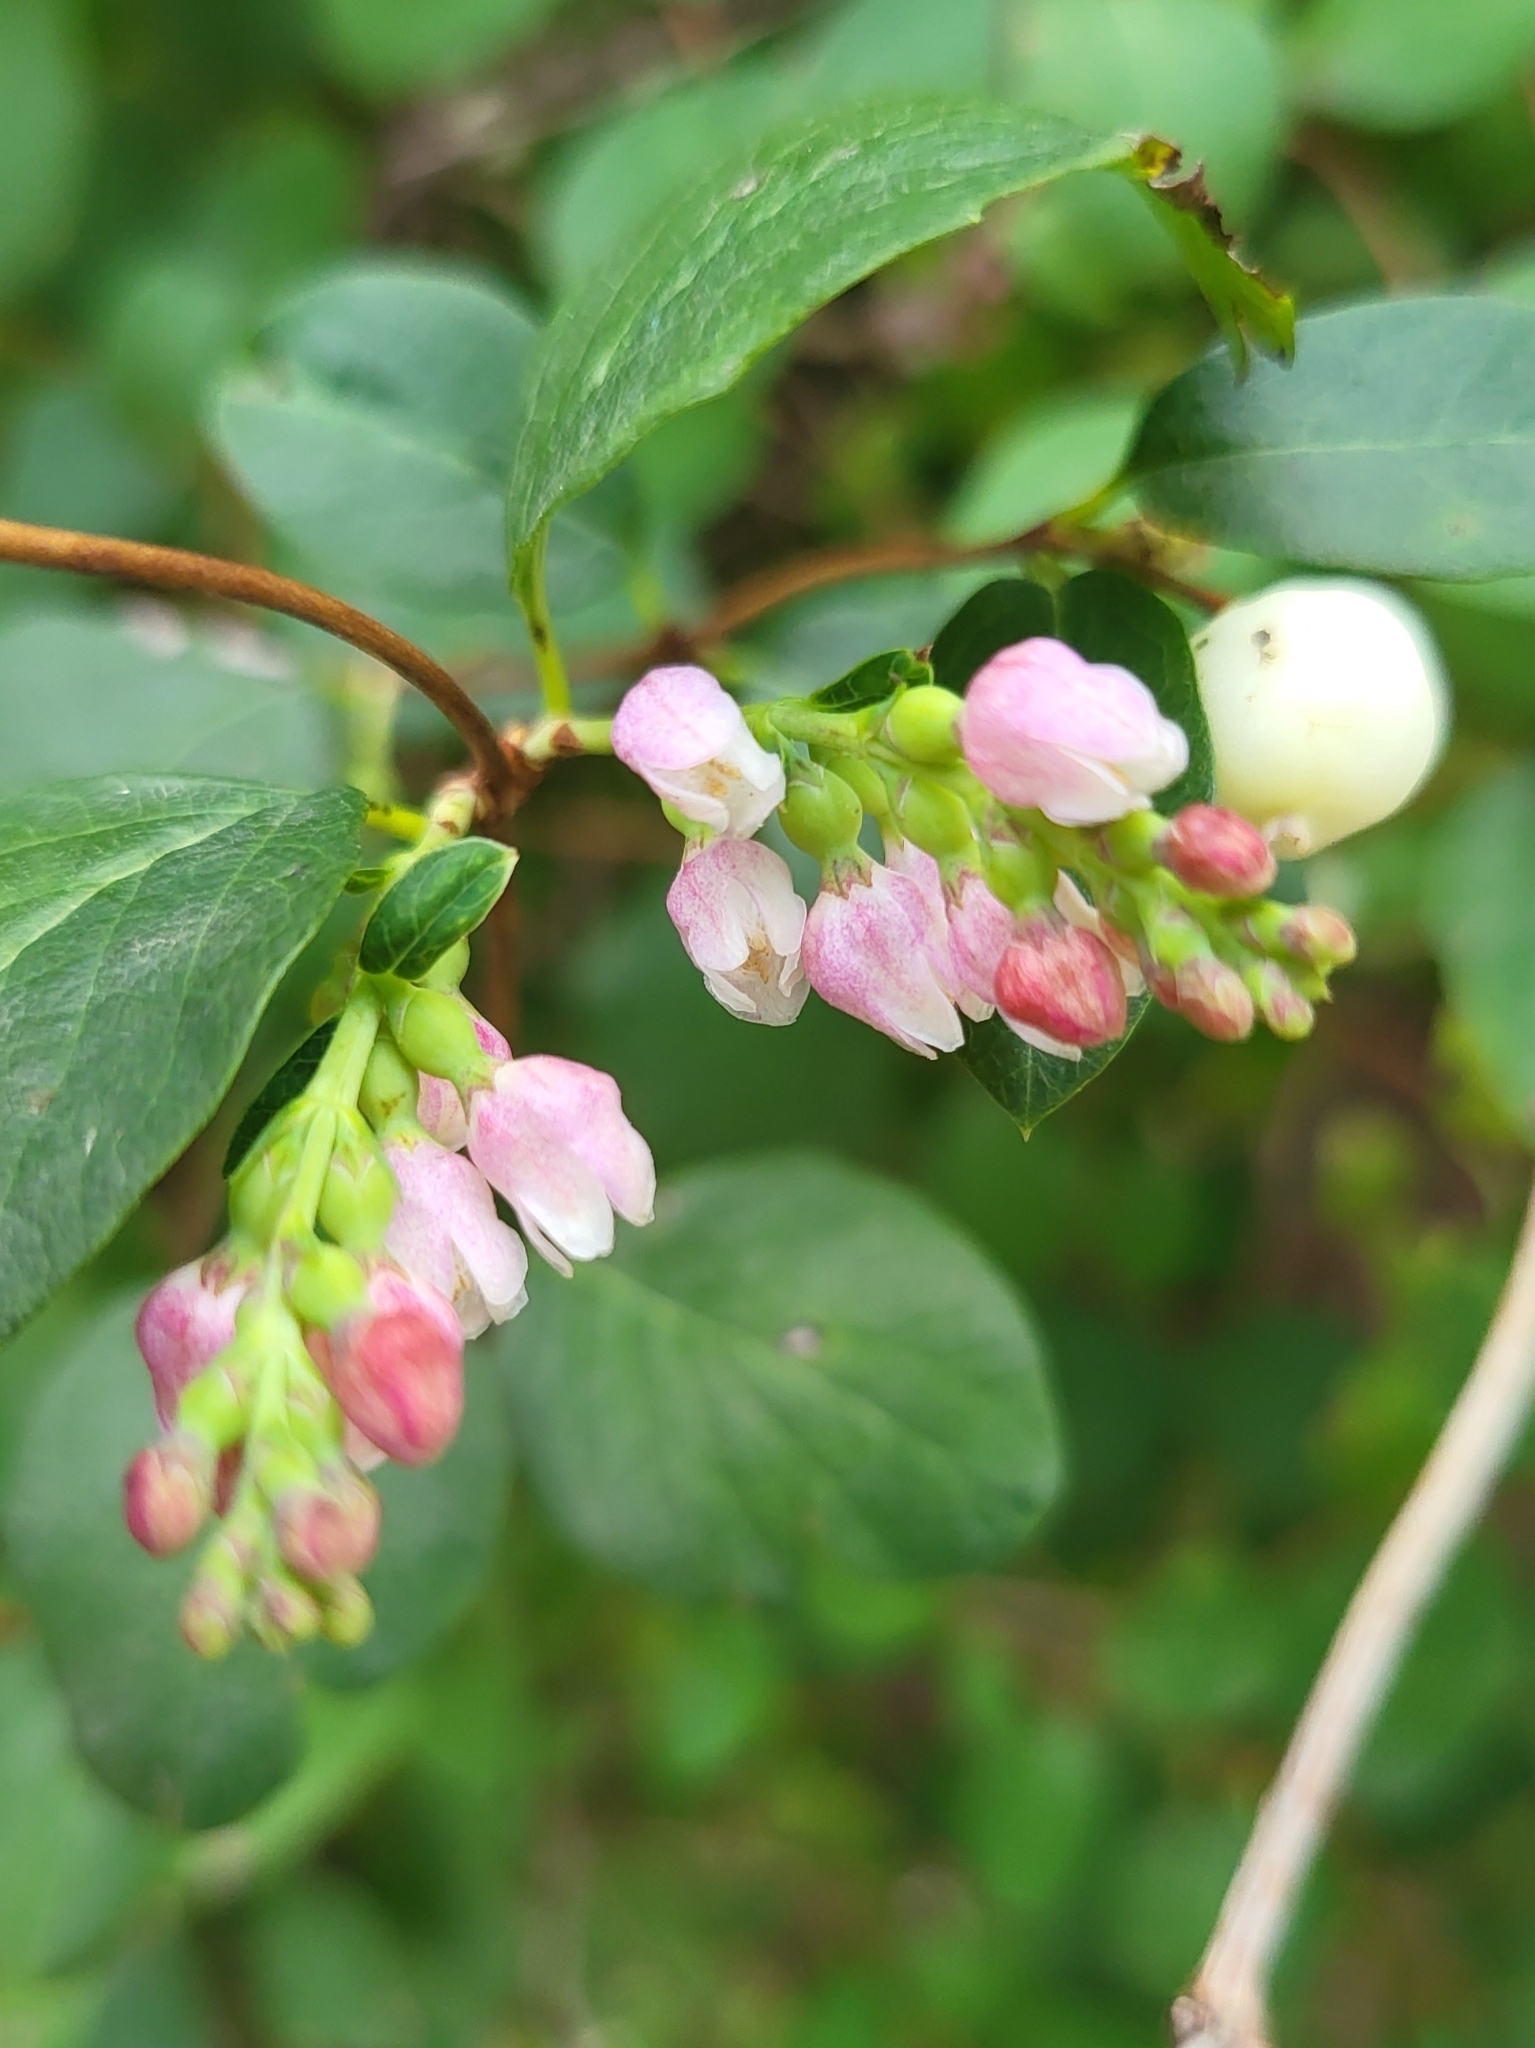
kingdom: Plantae
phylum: Tracheophyta
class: Magnoliopsida
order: Dipsacales
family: Caprifoliaceae
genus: Symphoricarpos
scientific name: Symphoricarpos albus
